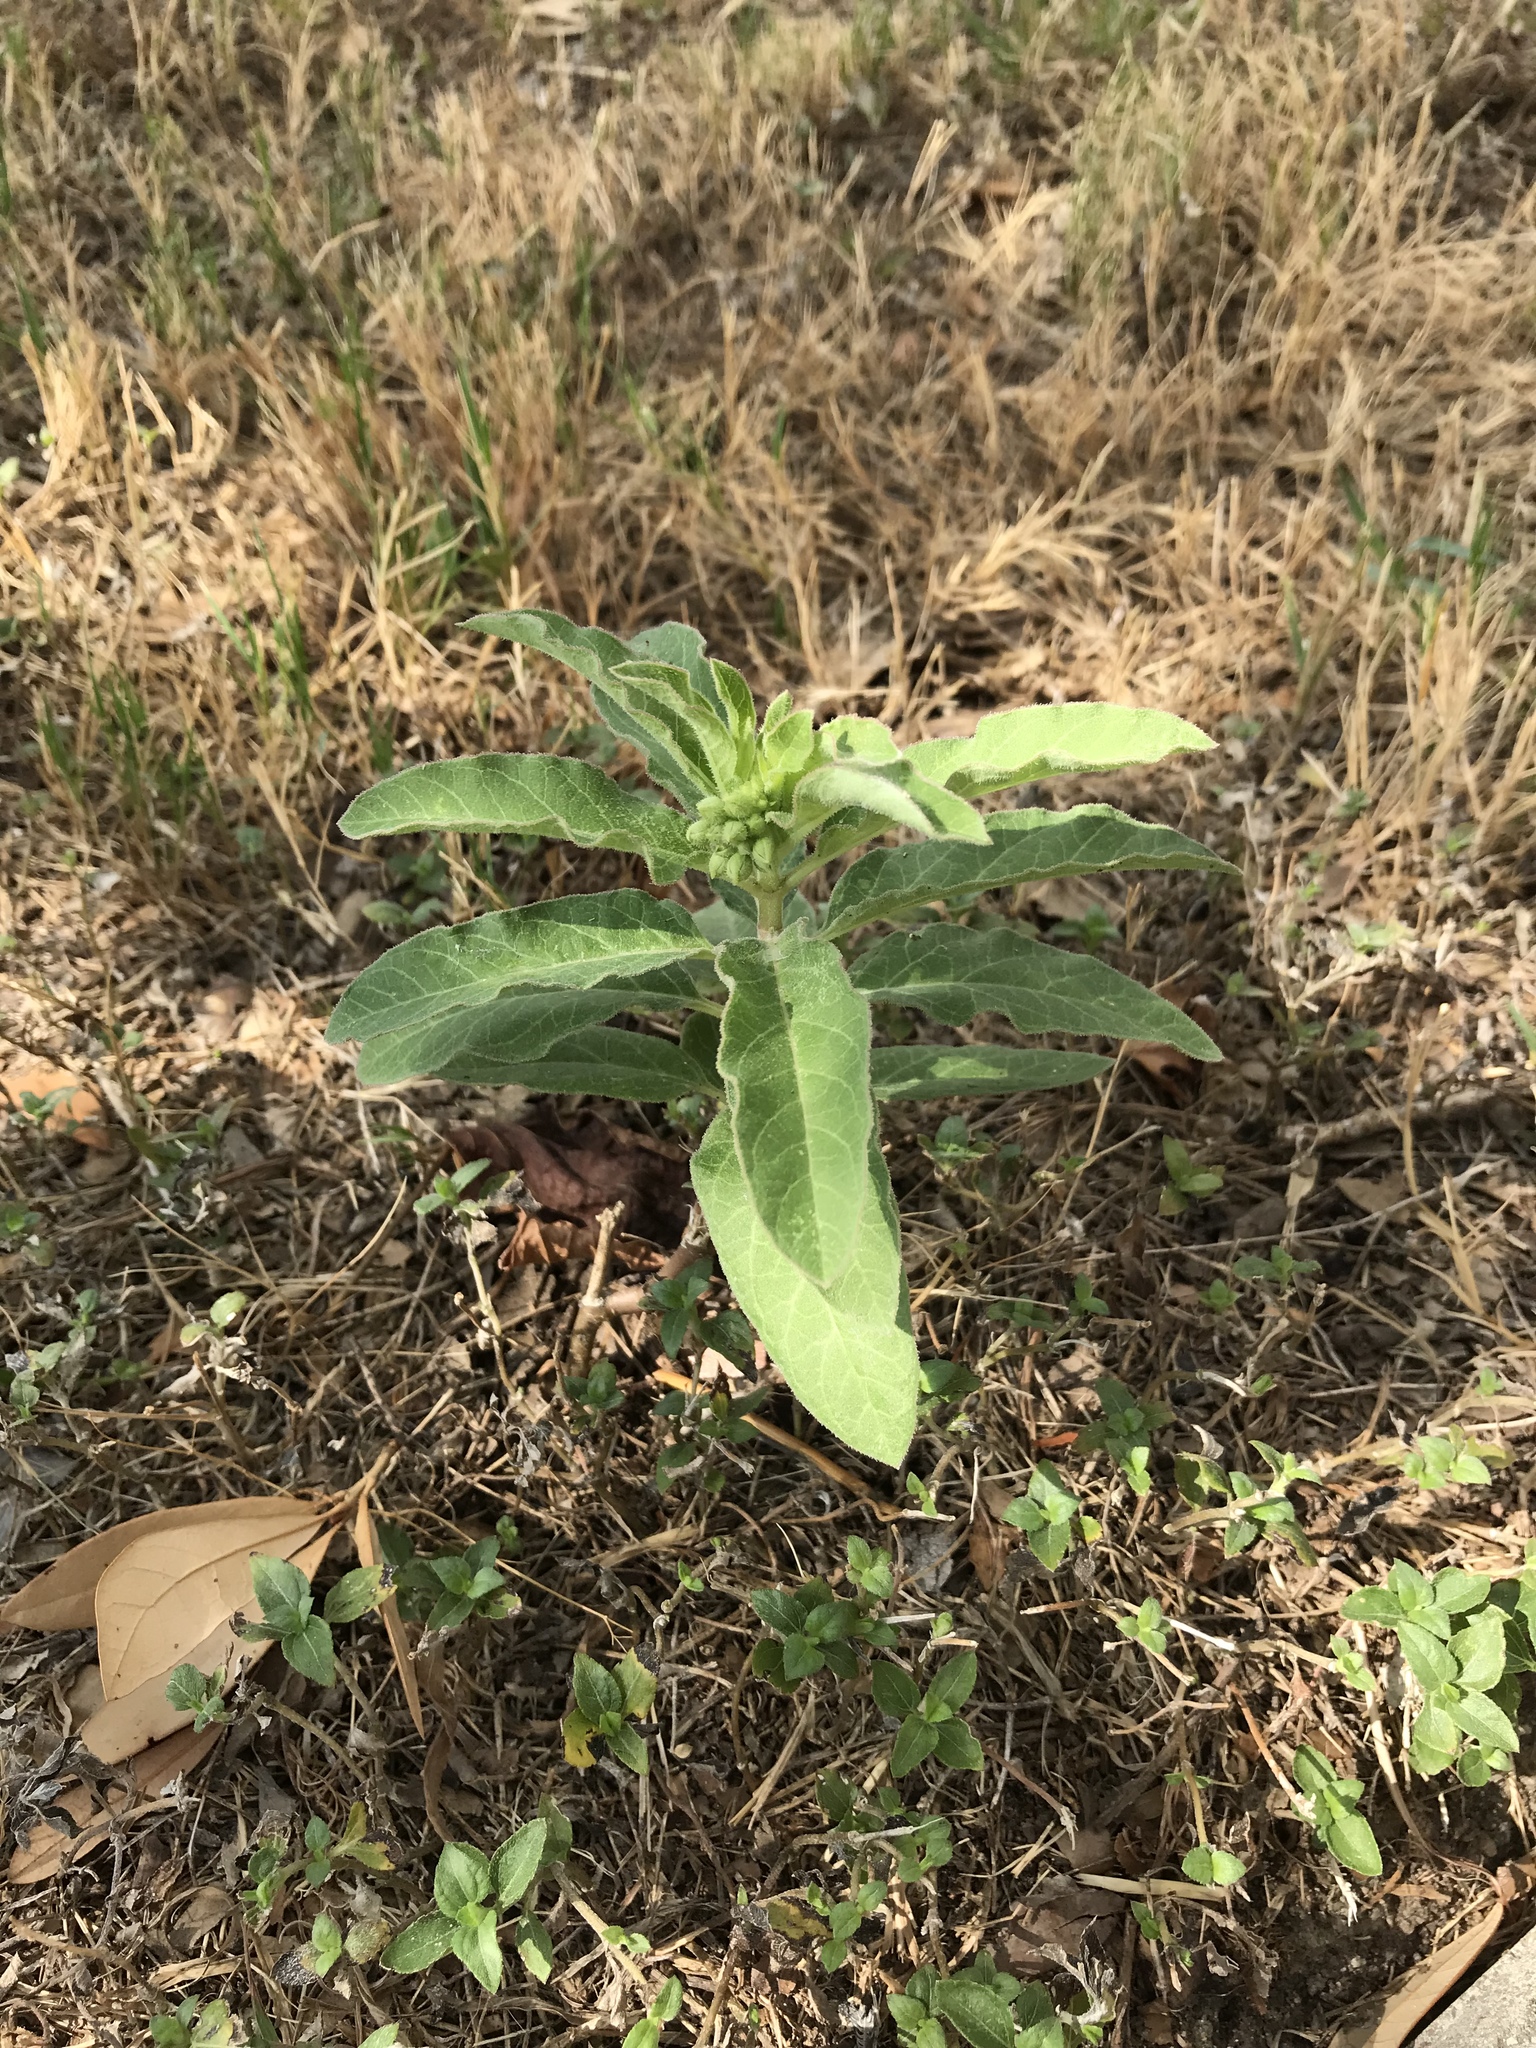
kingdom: Plantae
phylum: Tracheophyta
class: Magnoliopsida
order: Gentianales
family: Apocynaceae
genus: Asclepias
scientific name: Asclepias oenotheroides
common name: Zizotes milkweed
